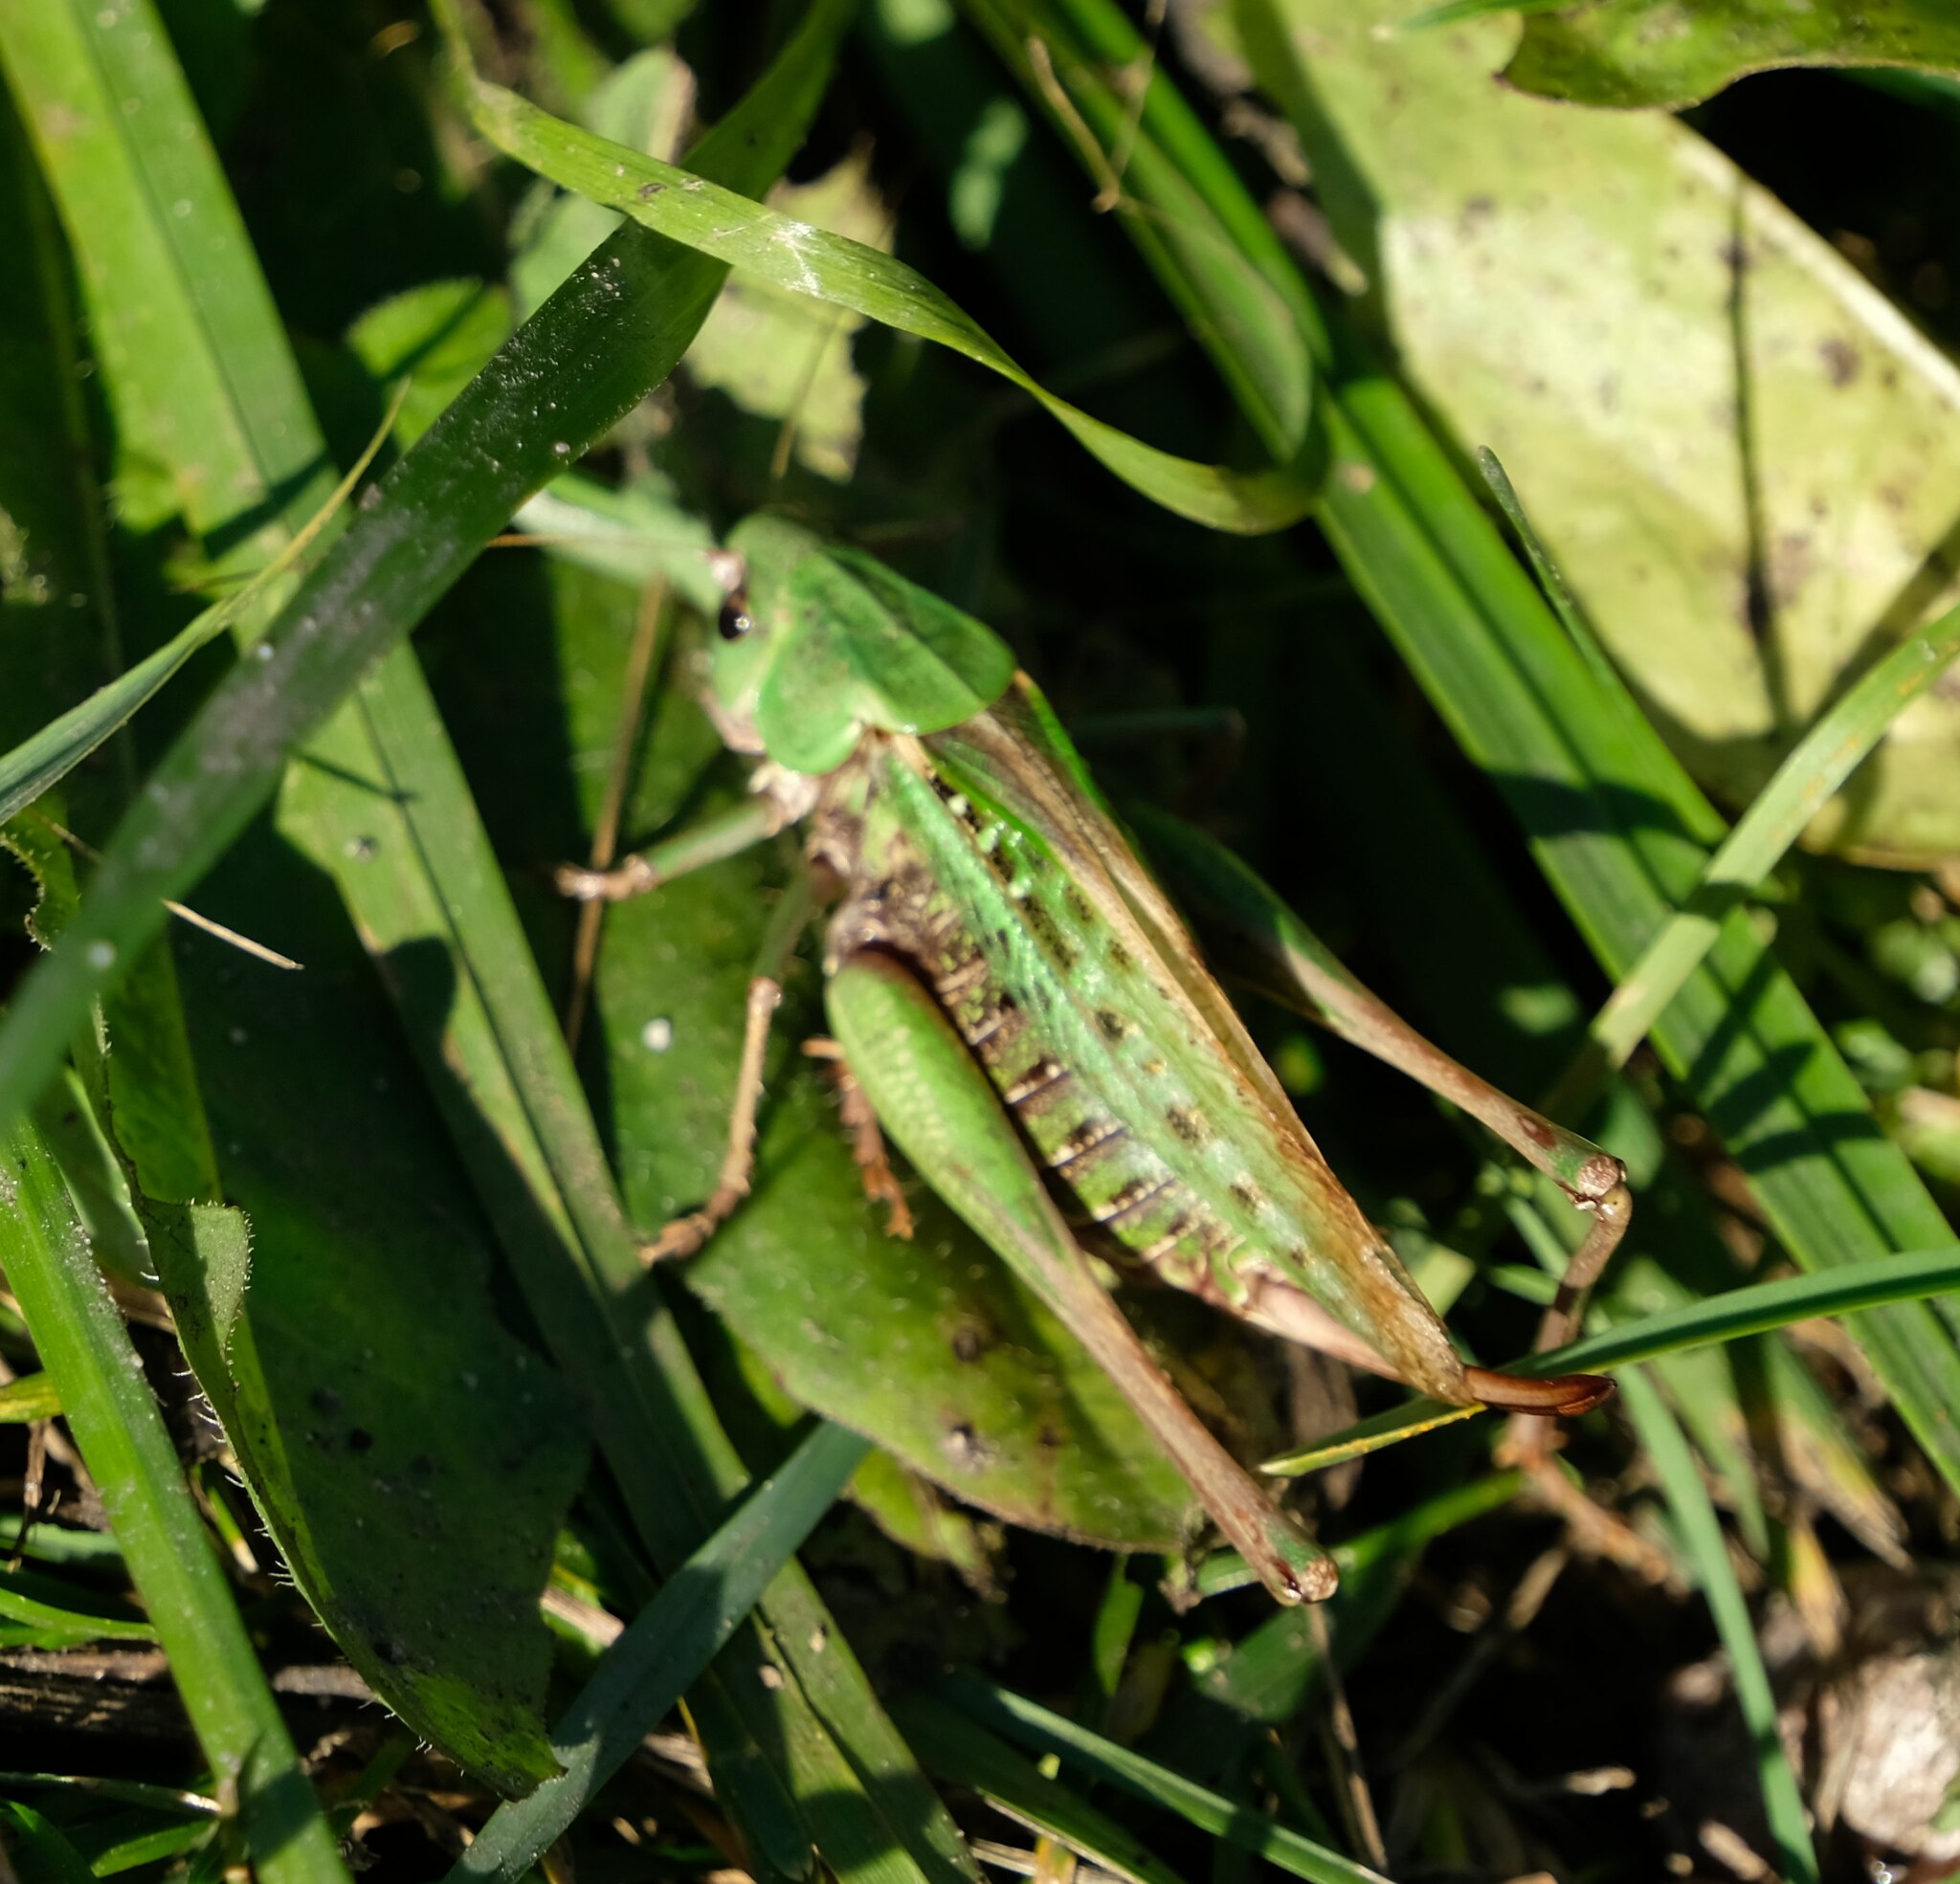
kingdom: Animalia
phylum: Arthropoda
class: Insecta
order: Orthoptera
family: Tettigoniidae
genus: Decticus
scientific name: Decticus verrucivorus
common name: Wart-biter
